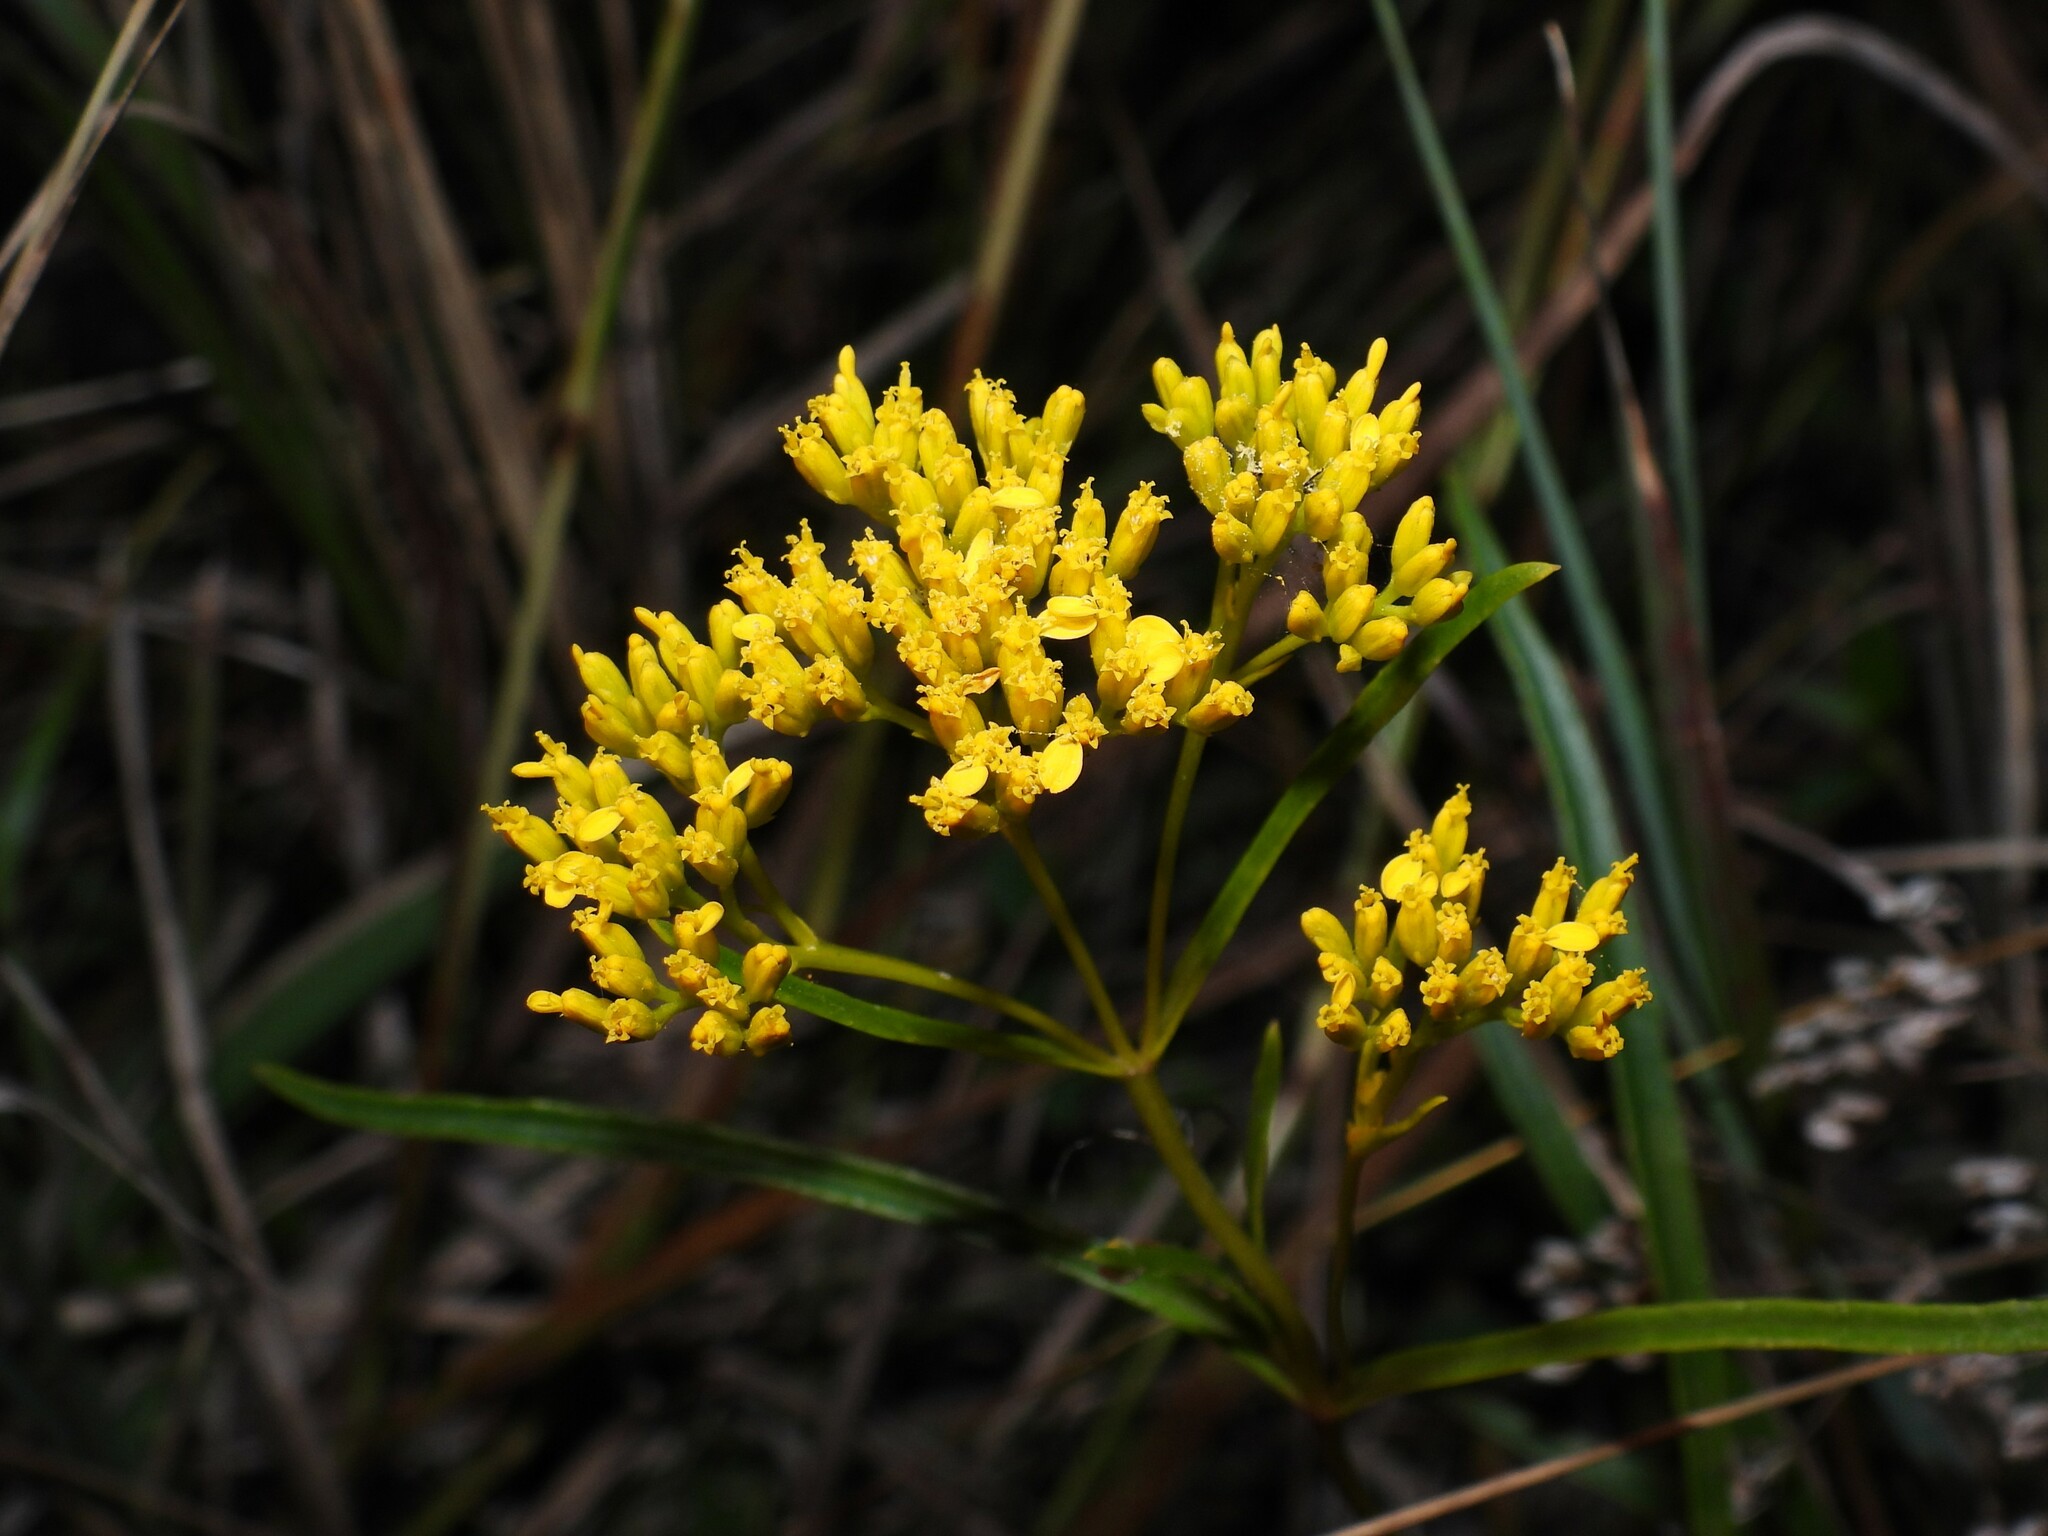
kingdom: Plantae
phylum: Tracheophyta
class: Magnoliopsida
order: Asterales
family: Asteraceae
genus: Flaveria
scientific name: Flaveria linearis
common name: Yellowtop
